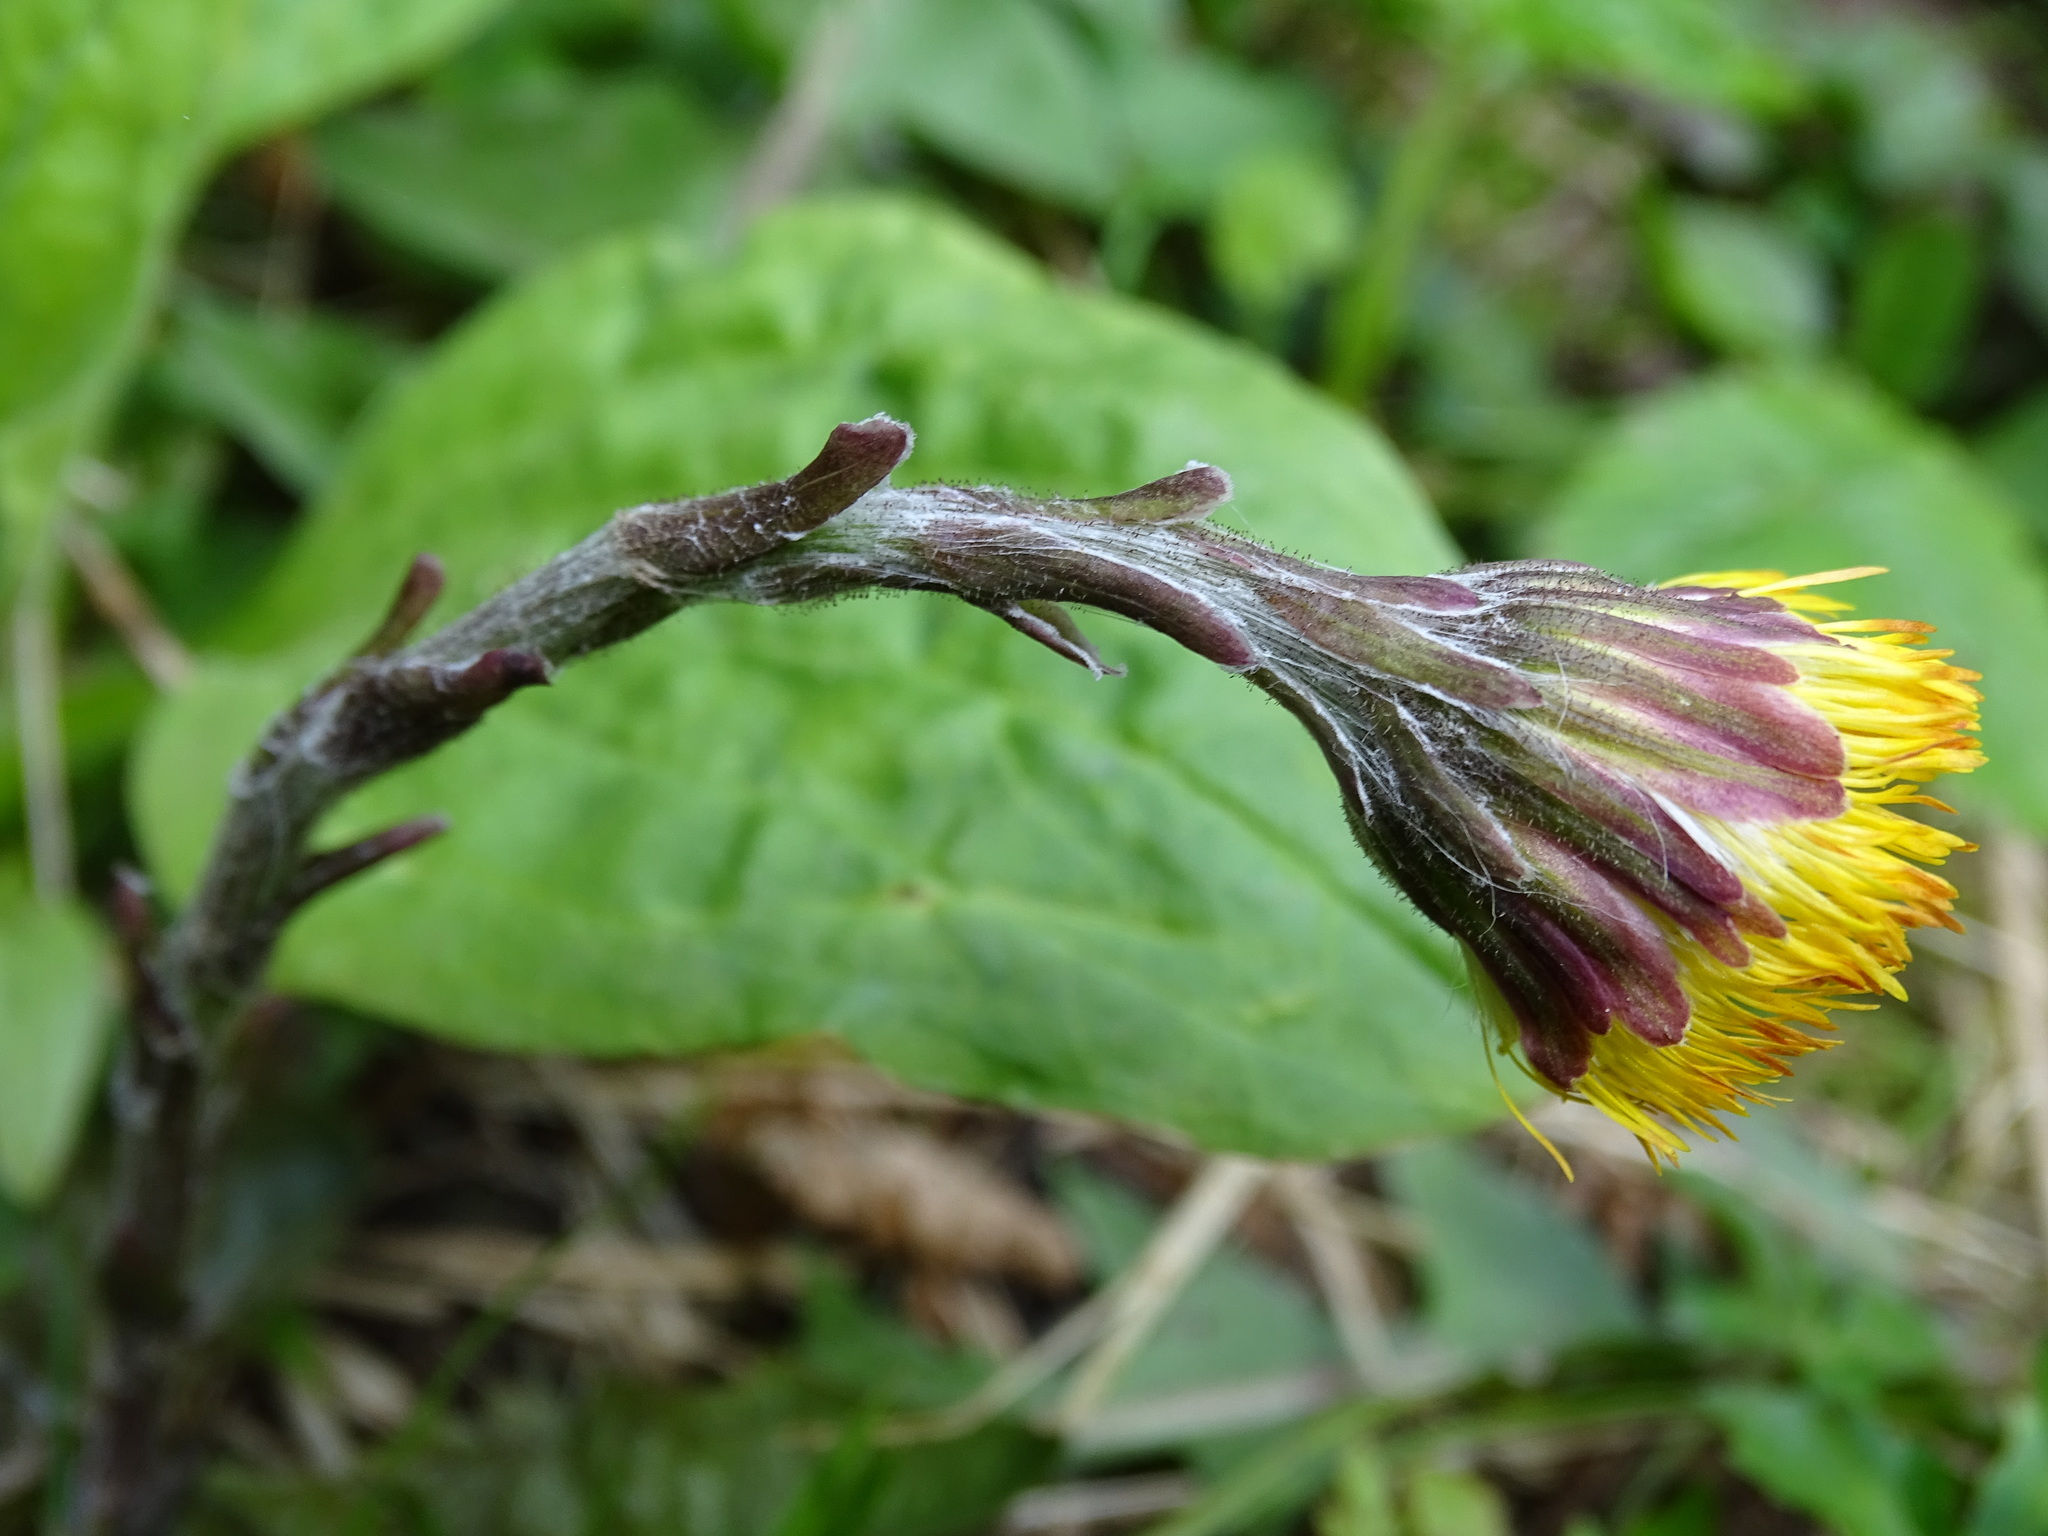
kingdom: Plantae
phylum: Tracheophyta
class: Magnoliopsida
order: Asterales
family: Asteraceae
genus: Tussilago
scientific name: Tussilago farfara
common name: Coltsfoot
